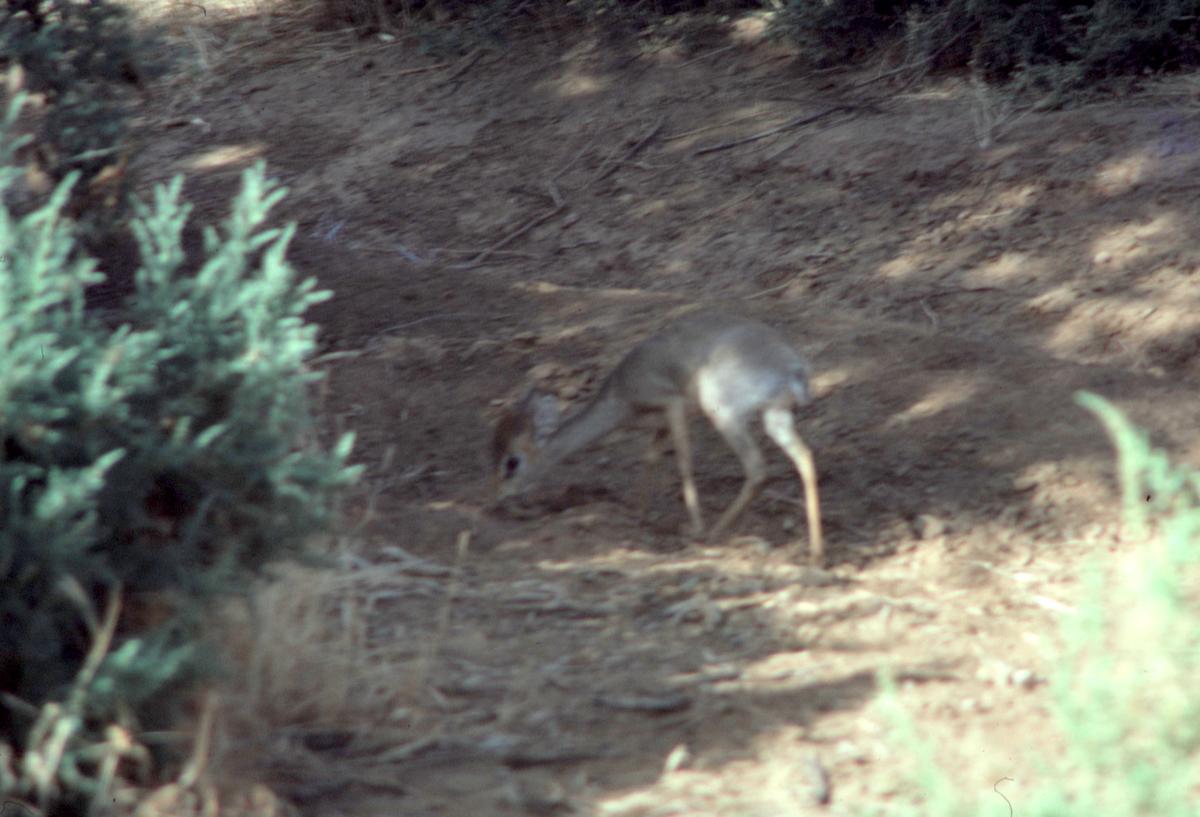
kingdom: Animalia
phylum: Chordata
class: Mammalia
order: Artiodactyla
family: Bovidae
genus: Madoqua
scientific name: Madoqua kirkii
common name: Kirk's dik-dik
